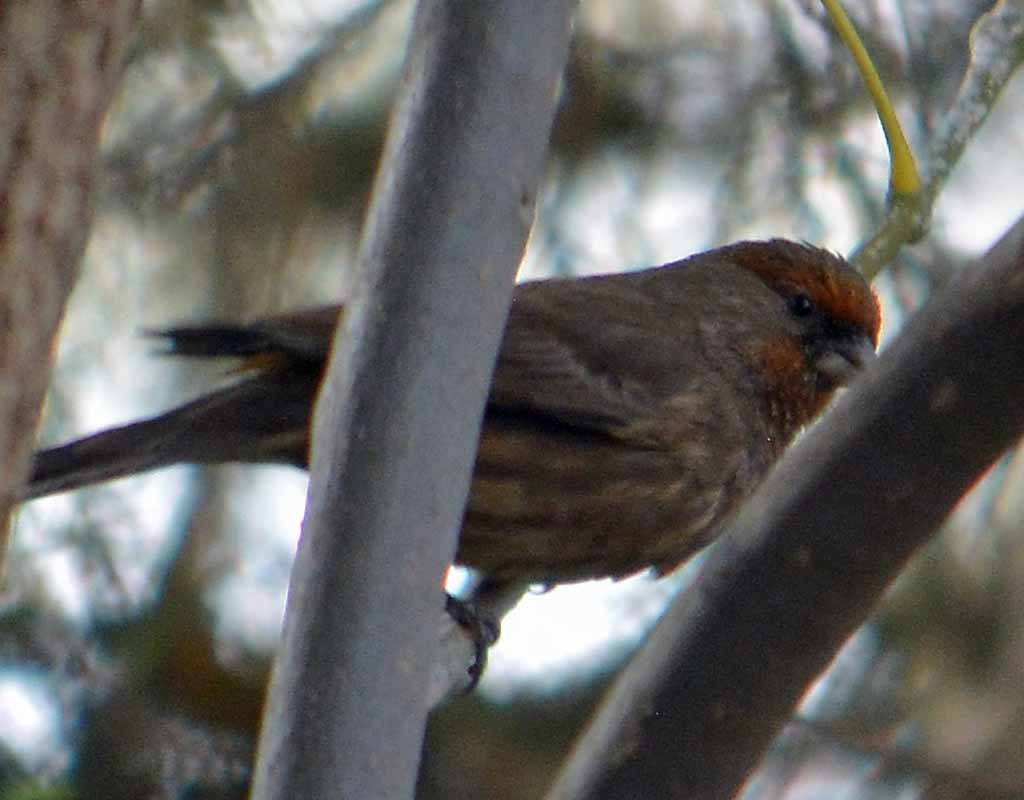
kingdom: Animalia
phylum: Chordata
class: Aves
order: Passeriformes
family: Fringillidae
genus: Haemorhous
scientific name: Haemorhous mexicanus
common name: House finch
